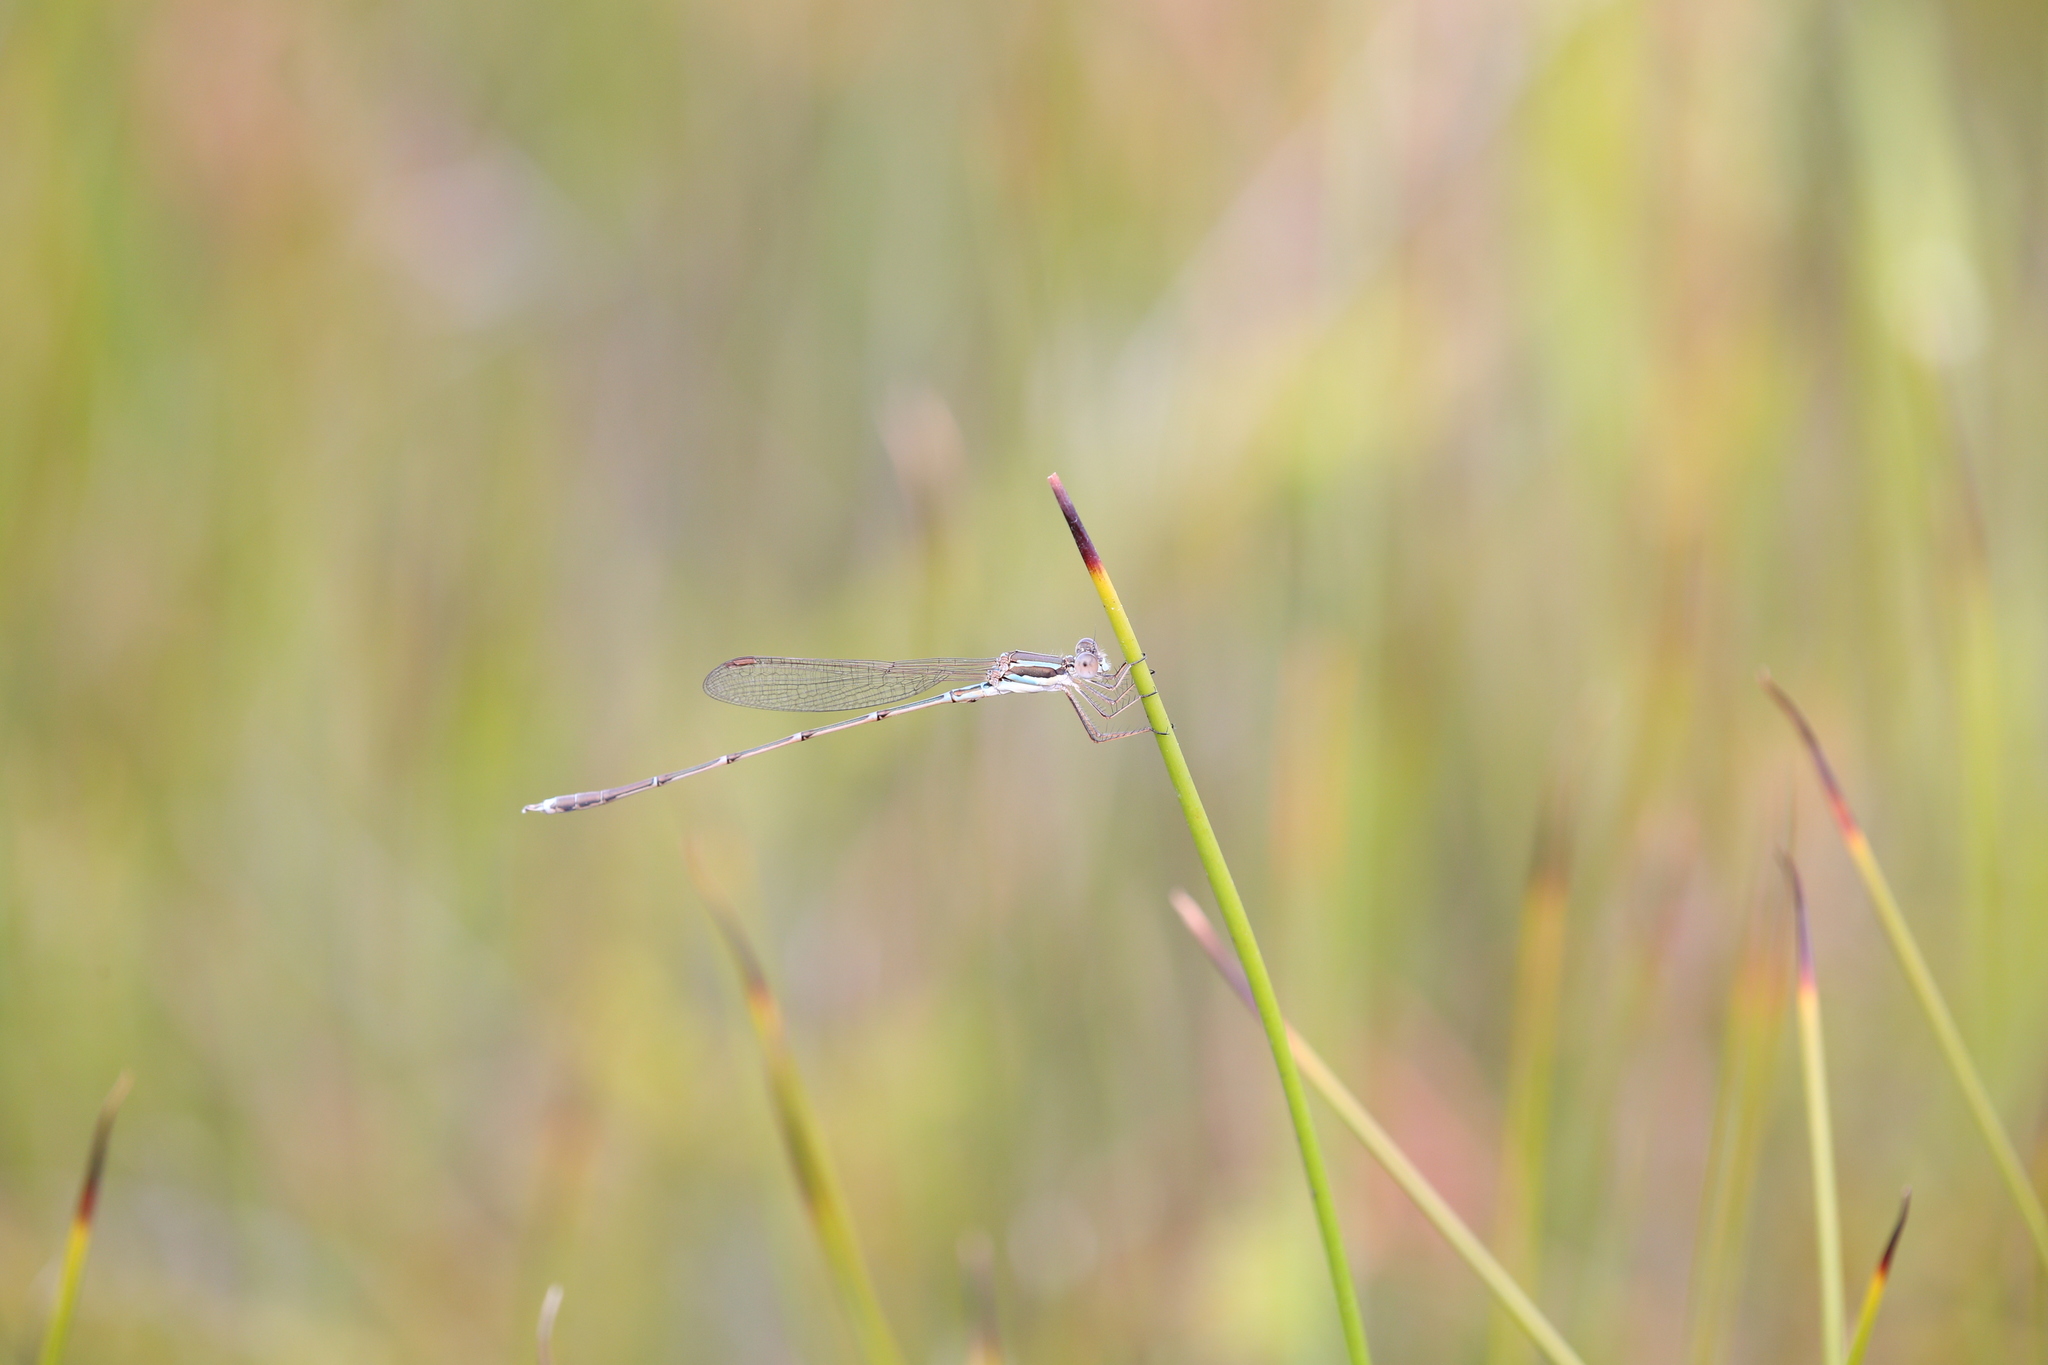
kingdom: Animalia
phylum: Arthropoda
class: Insecta
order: Odonata
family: Lestidae
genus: Austrolestes
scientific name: Austrolestes analis
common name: Slender ringtail
